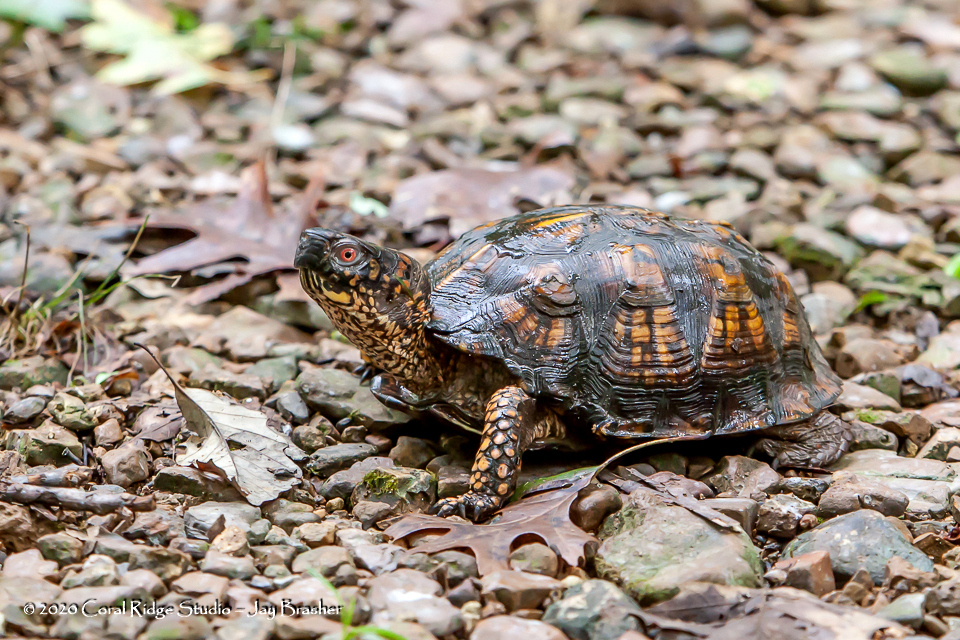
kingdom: Animalia
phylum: Chordata
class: Testudines
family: Emydidae
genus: Terrapene
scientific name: Terrapene carolina
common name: Common box turtle
